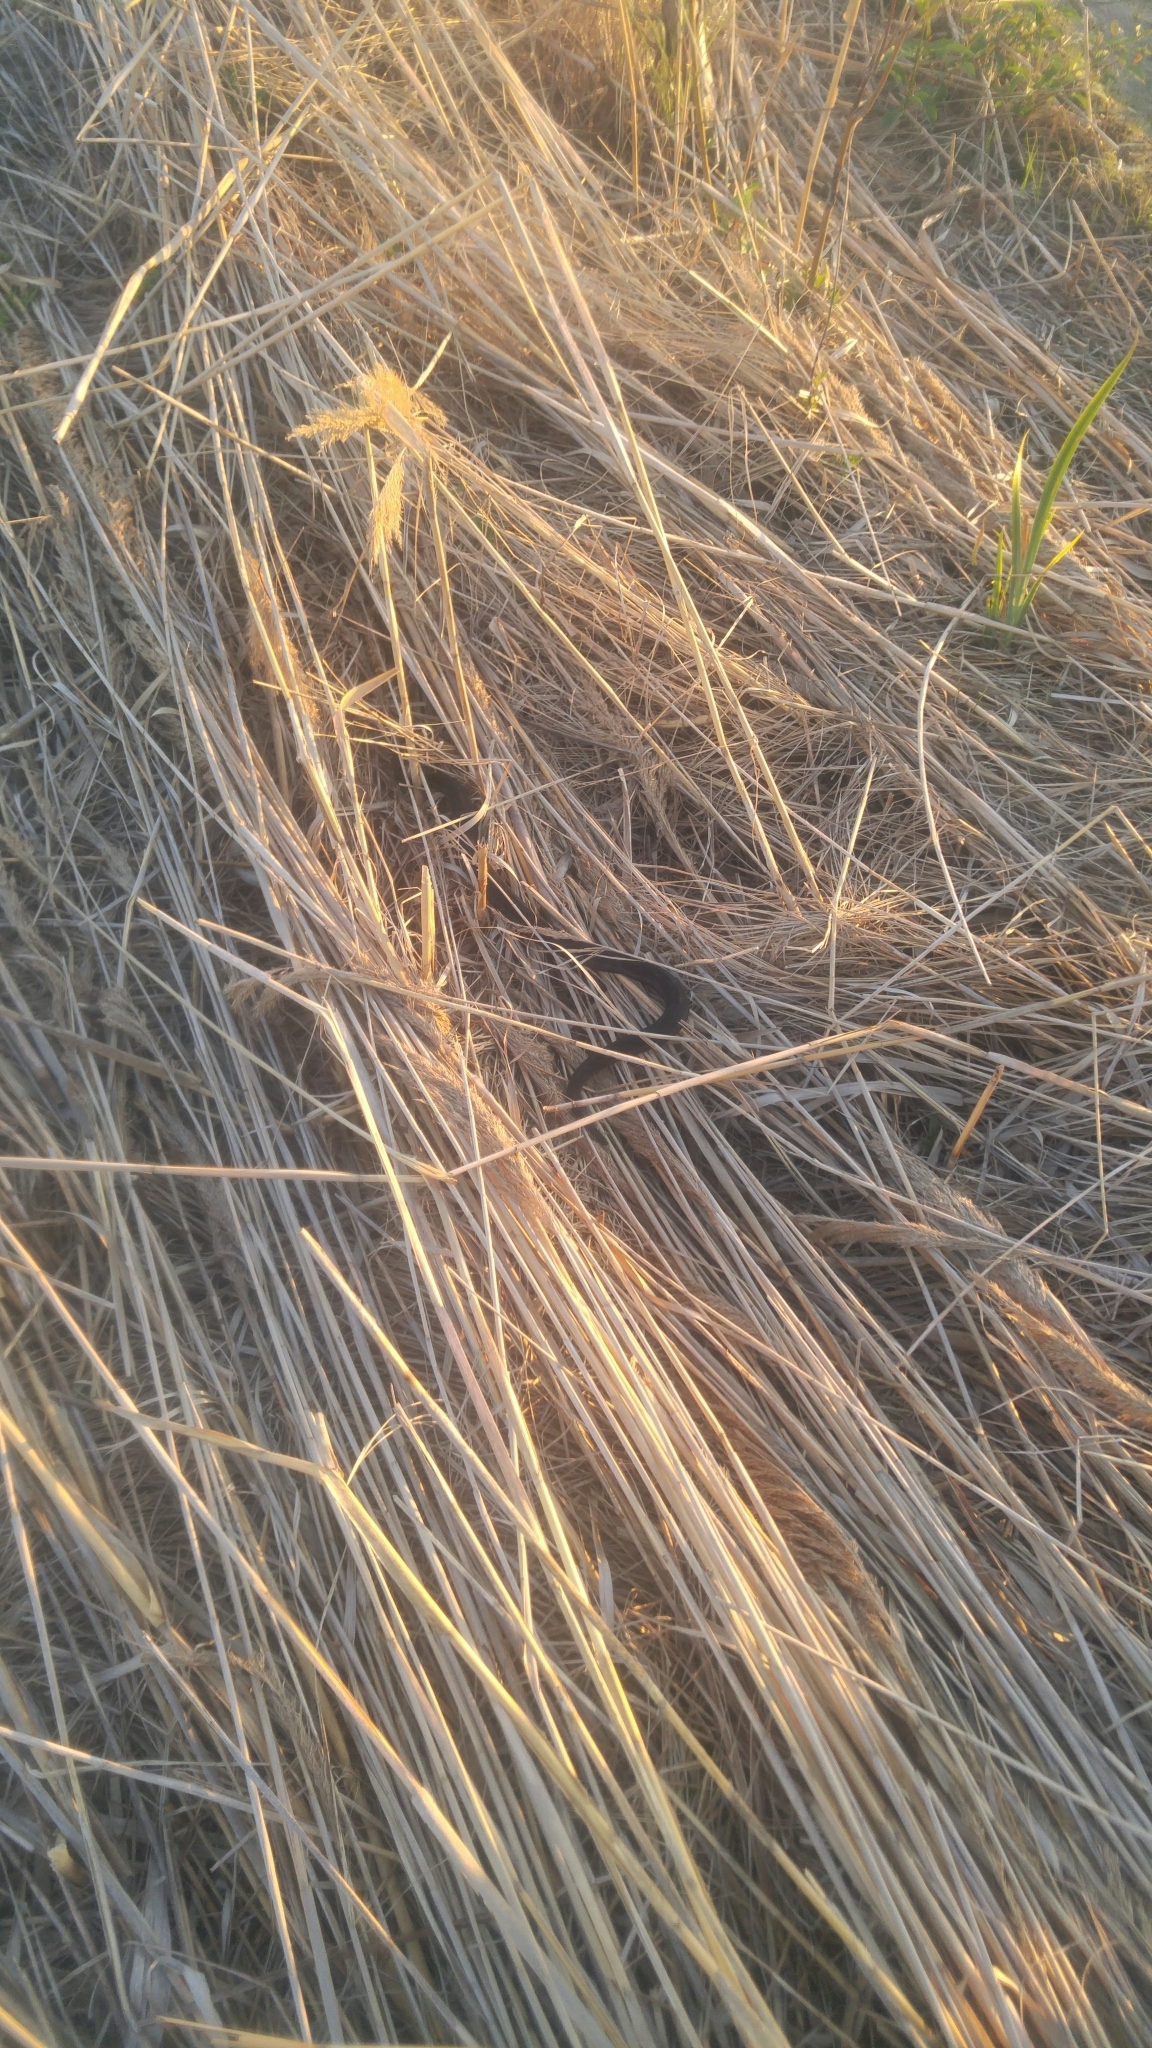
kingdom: Animalia
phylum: Chordata
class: Squamata
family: Colubridae
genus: Thamnophis
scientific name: Thamnophis sirtalis
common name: Common garter snake
